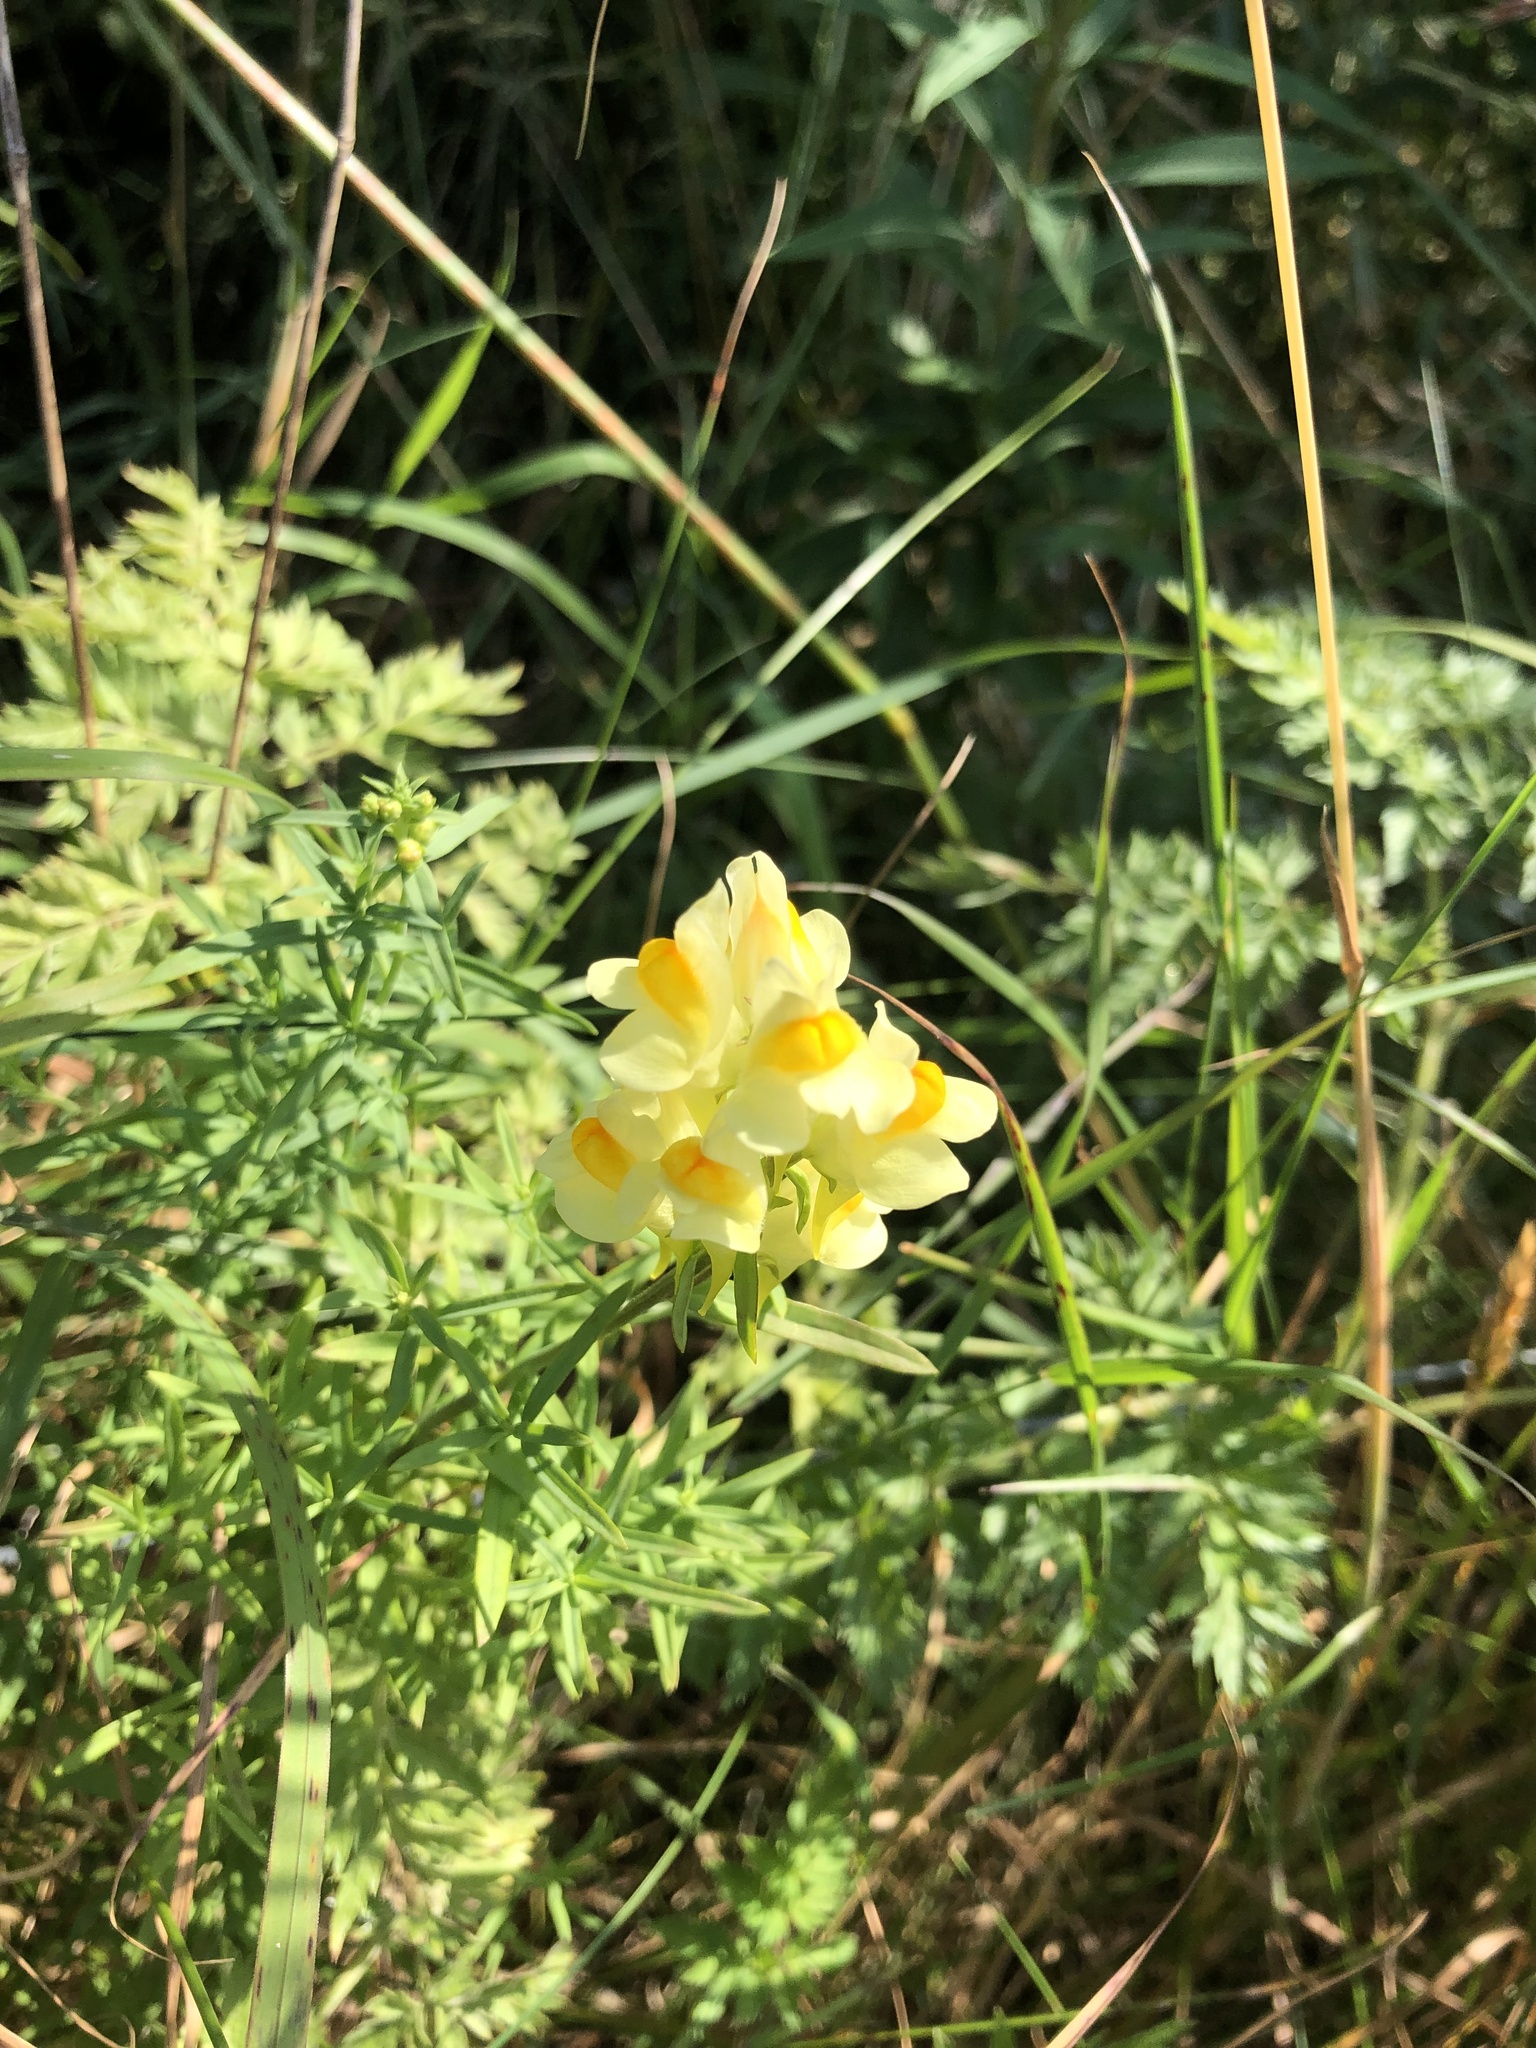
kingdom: Plantae
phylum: Tracheophyta
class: Magnoliopsida
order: Lamiales
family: Plantaginaceae
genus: Linaria
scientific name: Linaria vulgaris
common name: Butter and eggs
